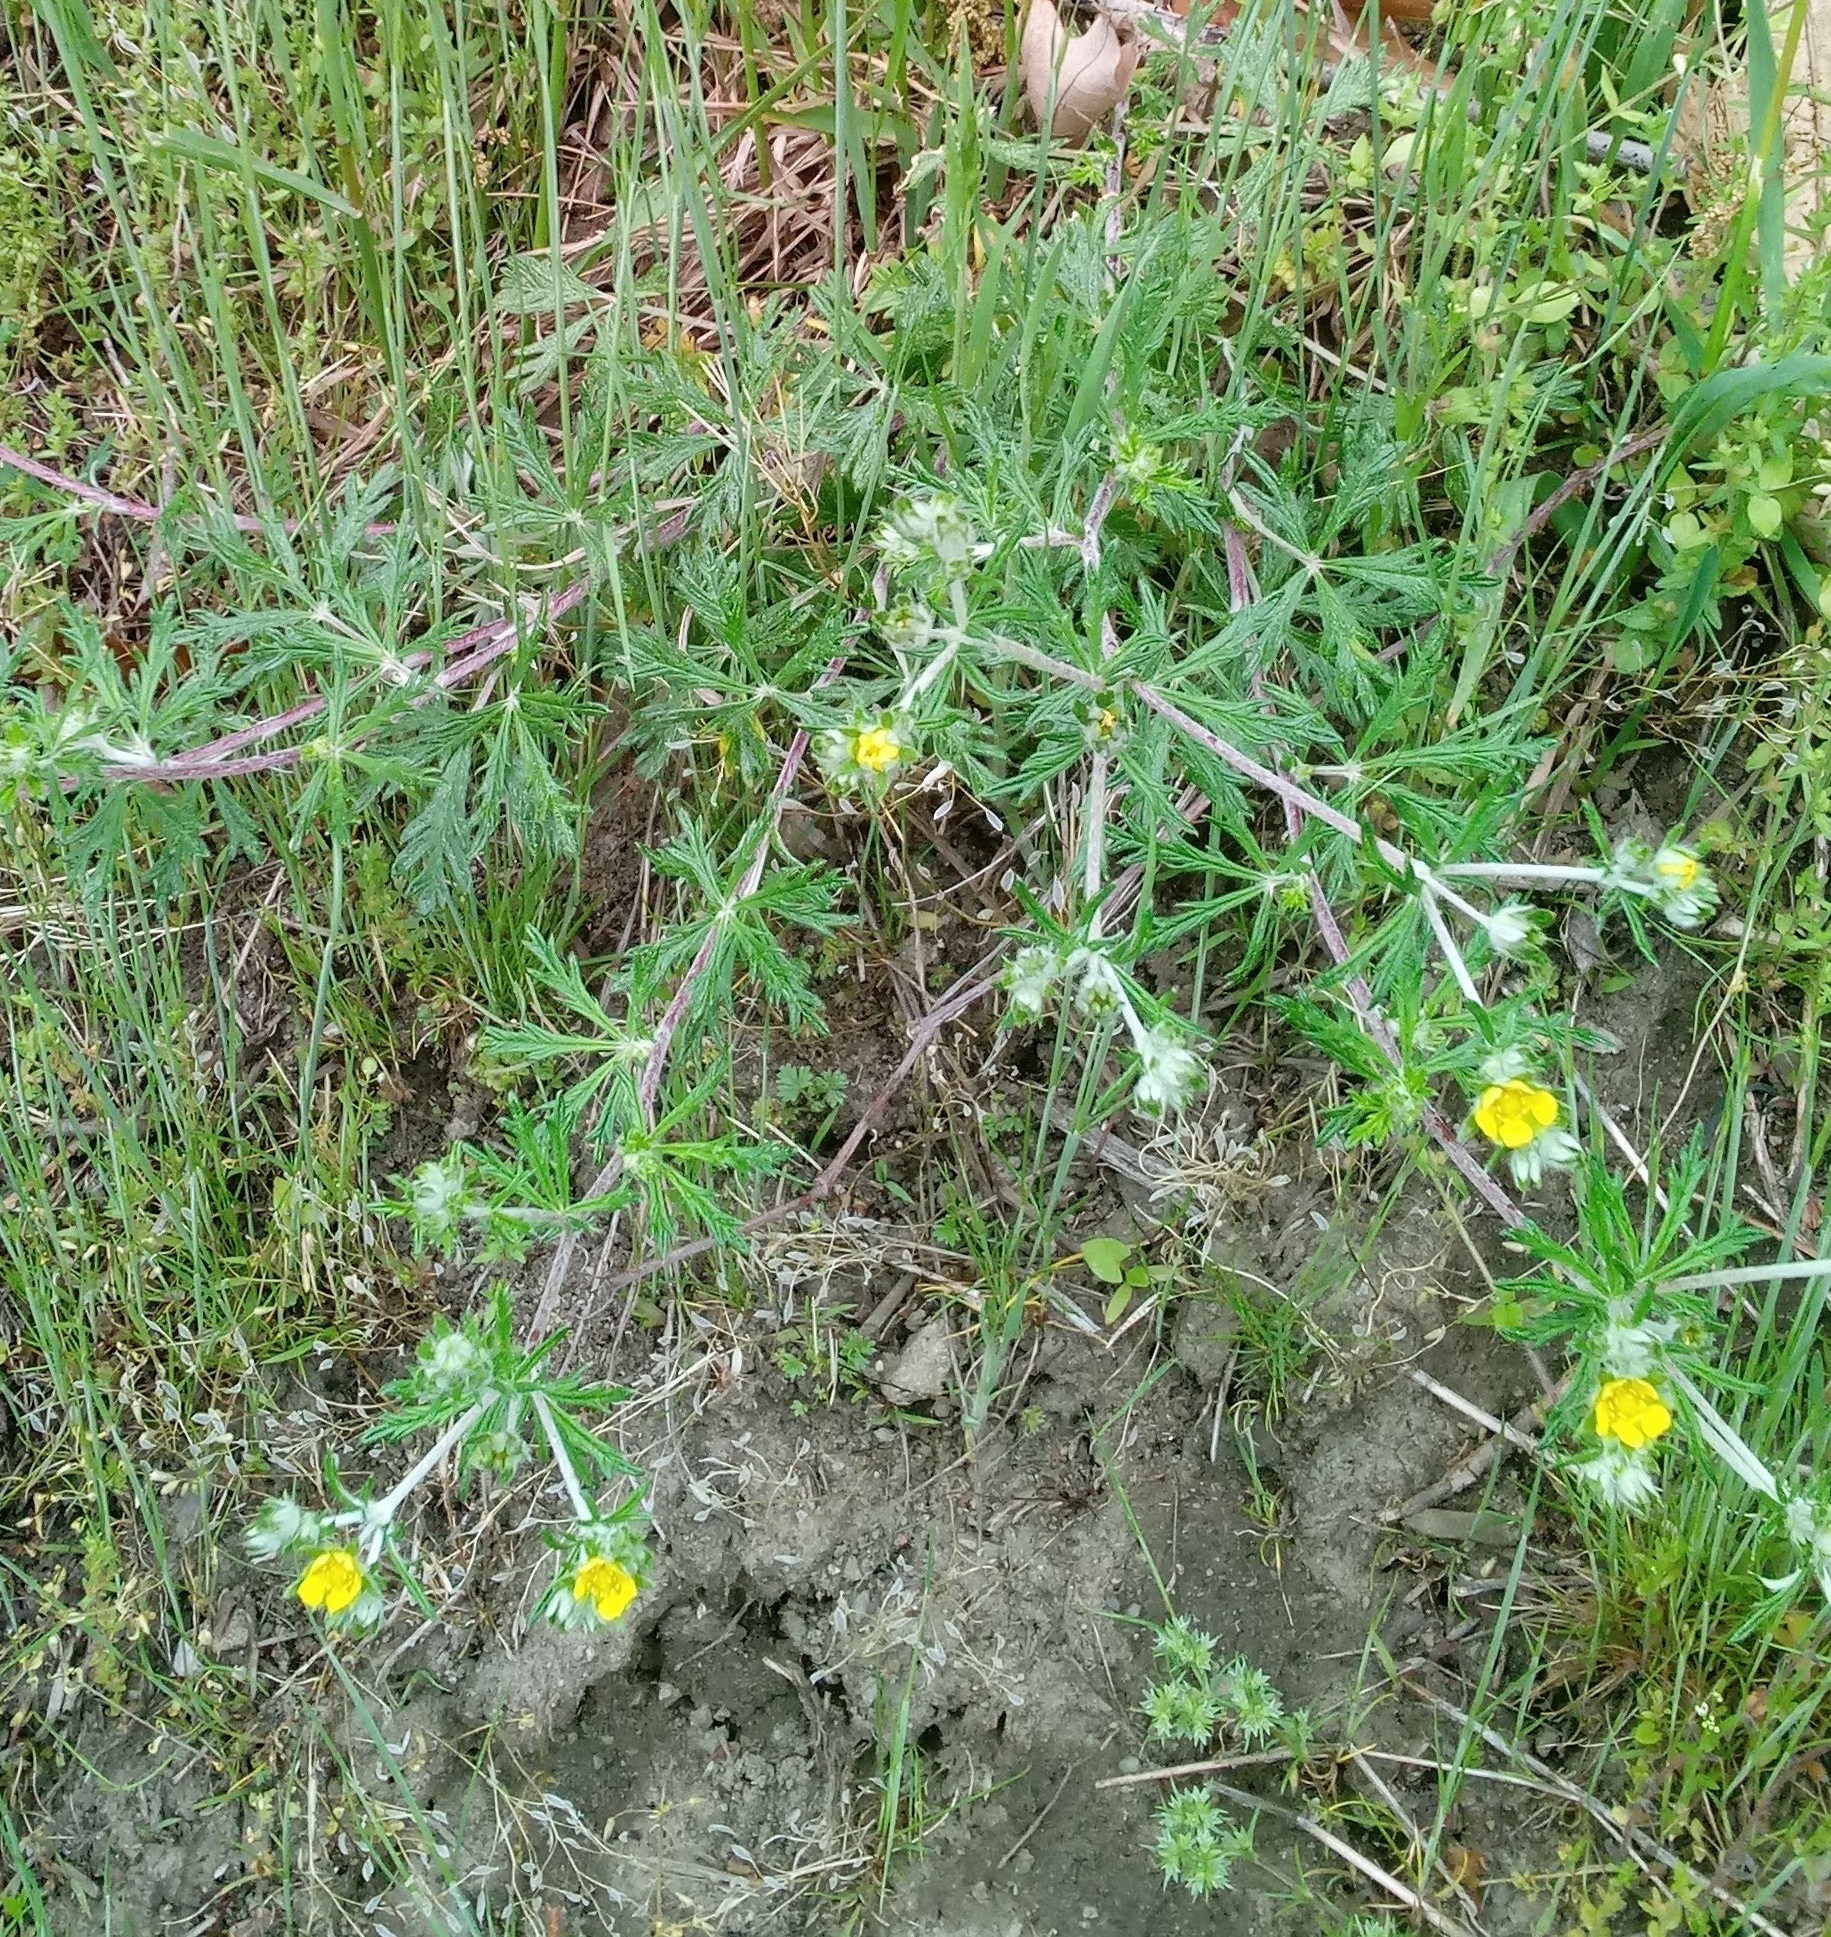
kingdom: Plantae
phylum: Tracheophyta
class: Magnoliopsida
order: Rosales
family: Rosaceae
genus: Potentilla
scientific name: Potentilla argentea
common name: Hoary cinquefoil
